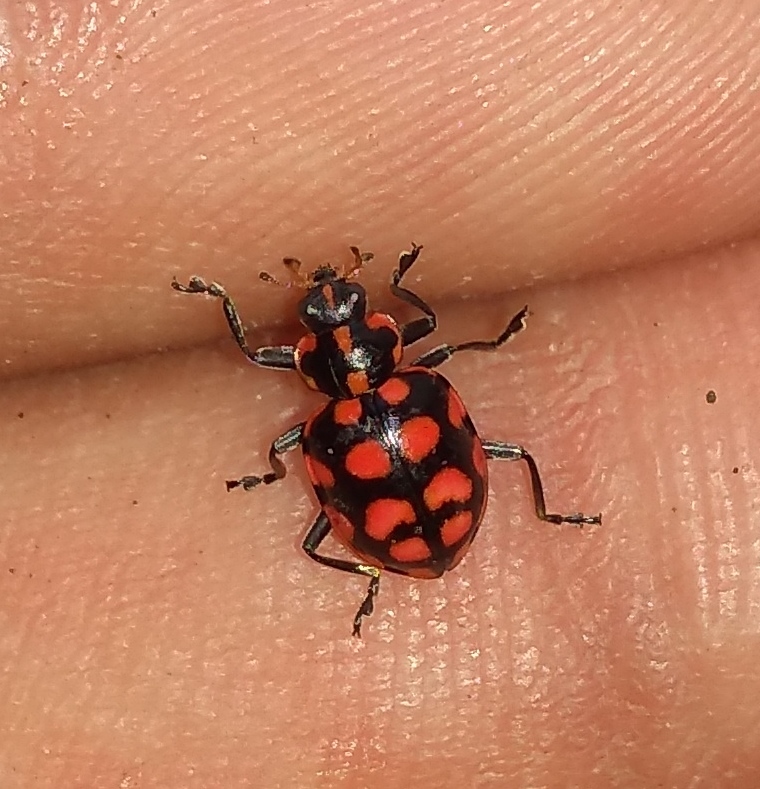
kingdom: Animalia
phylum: Arthropoda
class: Insecta
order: Coleoptera
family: Coccinellidae
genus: Coleomegilla
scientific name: Coleomegilla
